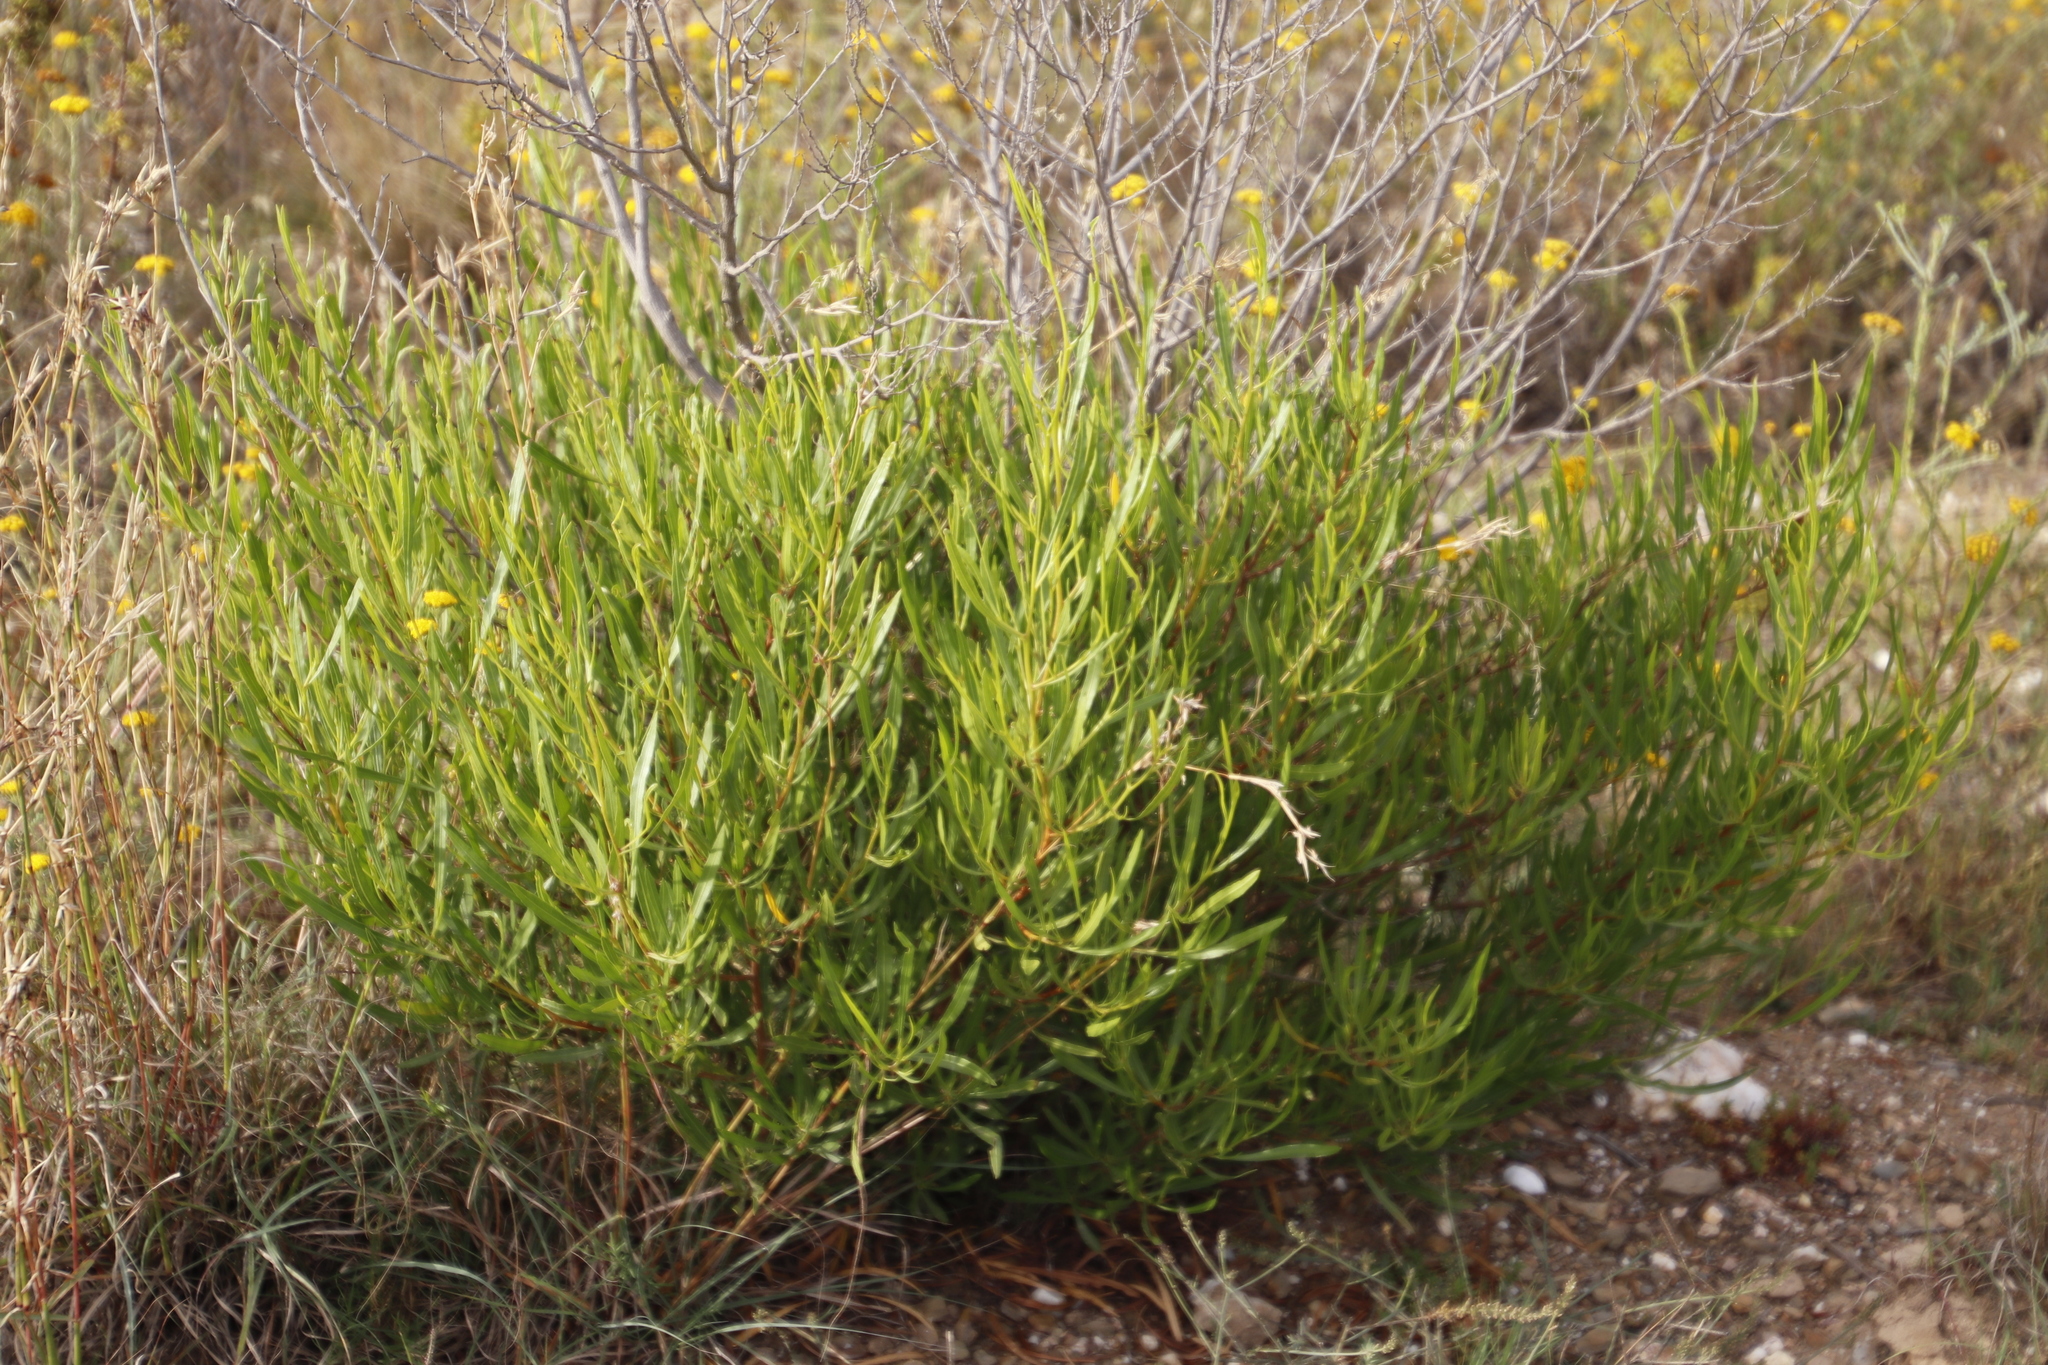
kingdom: Plantae
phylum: Tracheophyta
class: Magnoliopsida
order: Sapindales
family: Sapindaceae
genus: Dodonaea
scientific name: Dodonaea viscosa
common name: Hopbush
